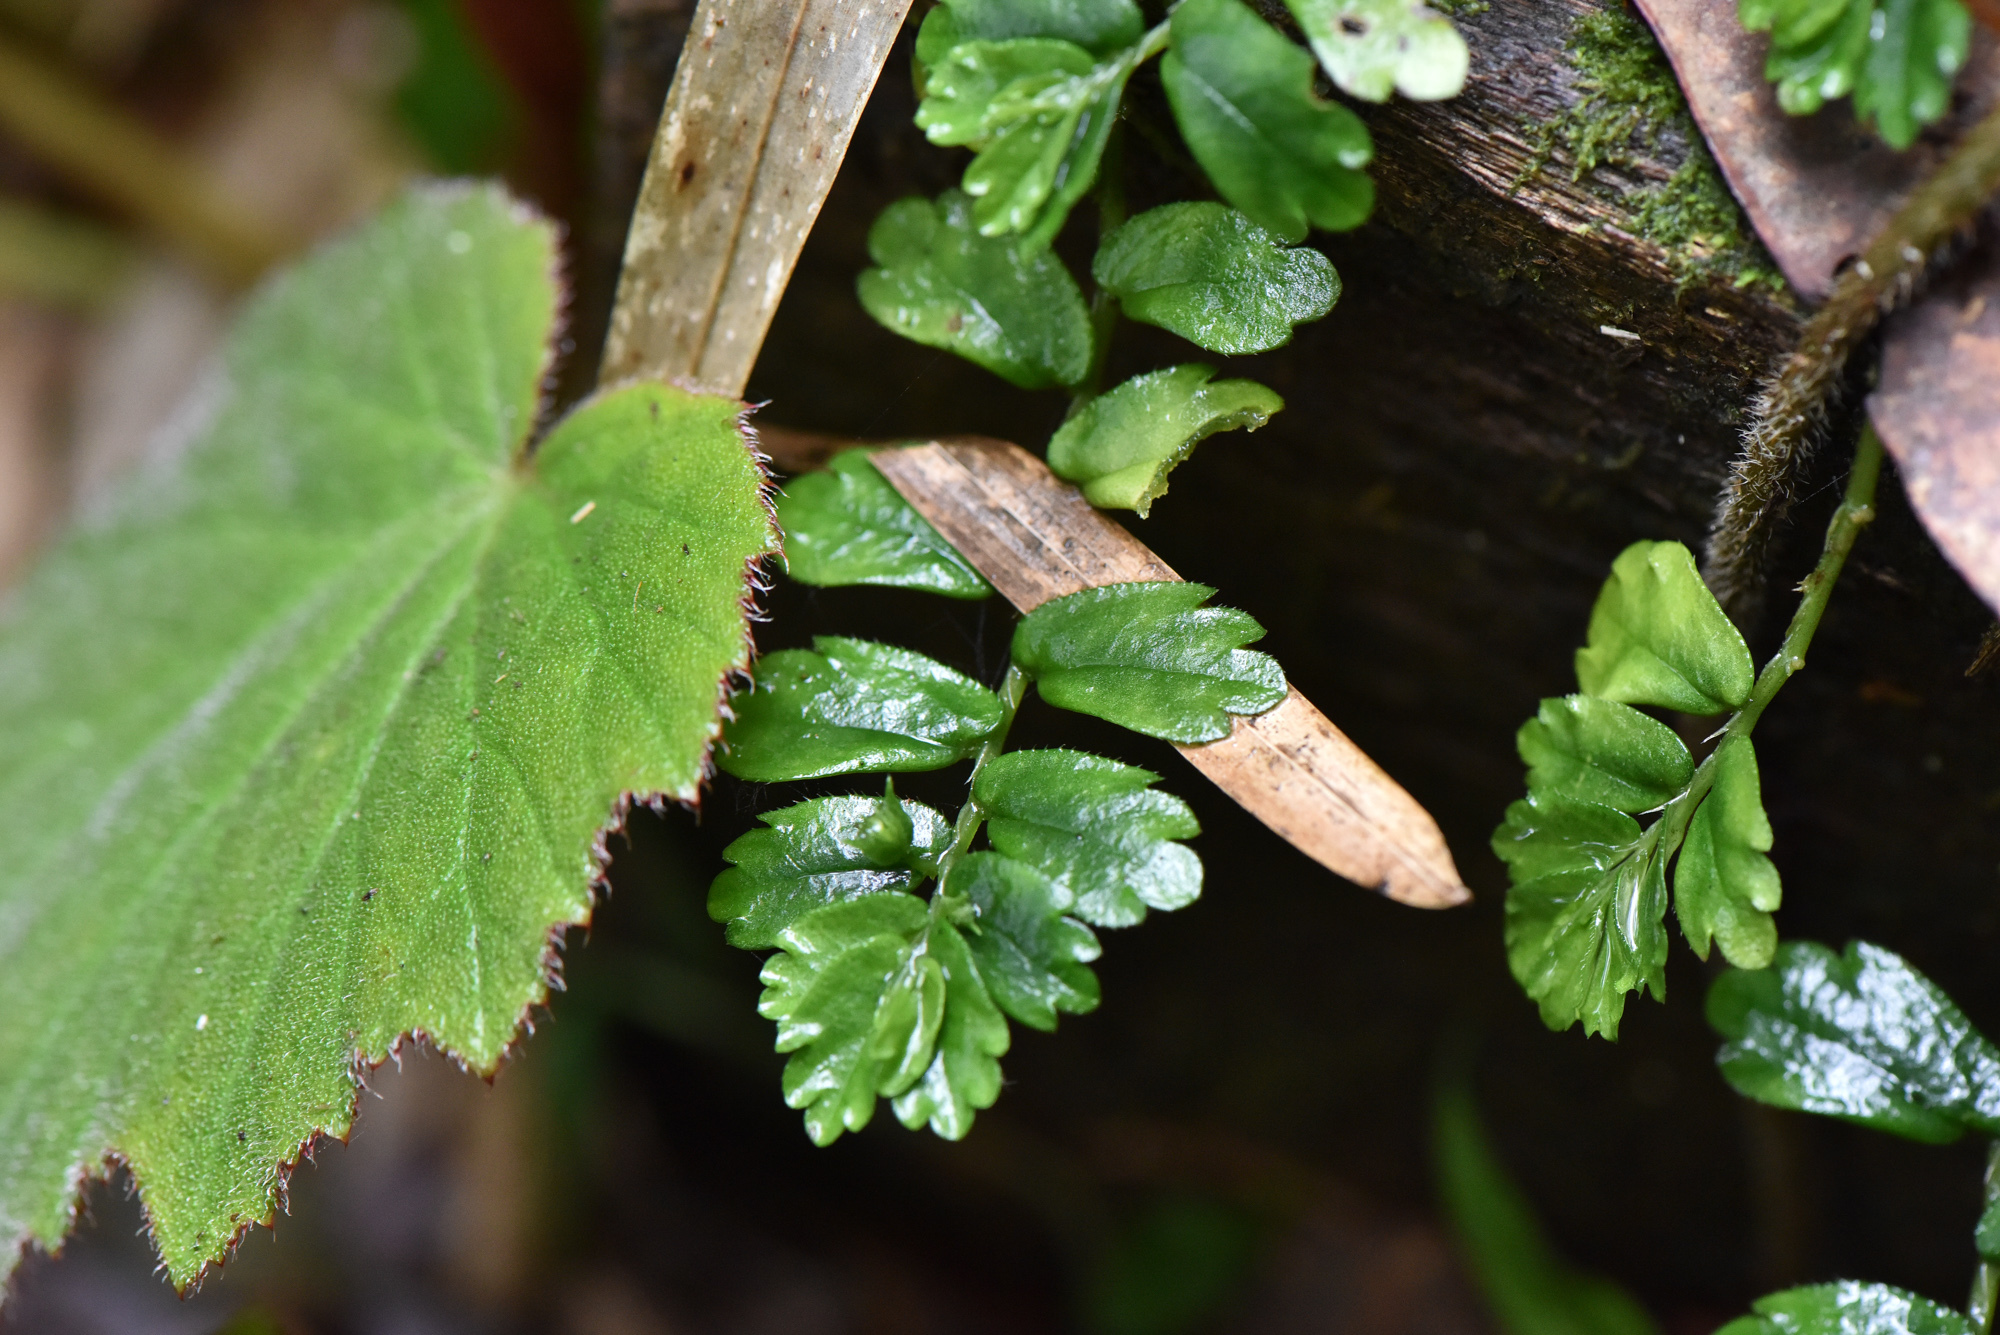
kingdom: Plantae
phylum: Tracheophyta
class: Magnoliopsida
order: Rosales
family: Urticaceae
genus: Elatostema
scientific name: Elatostema obtusum
